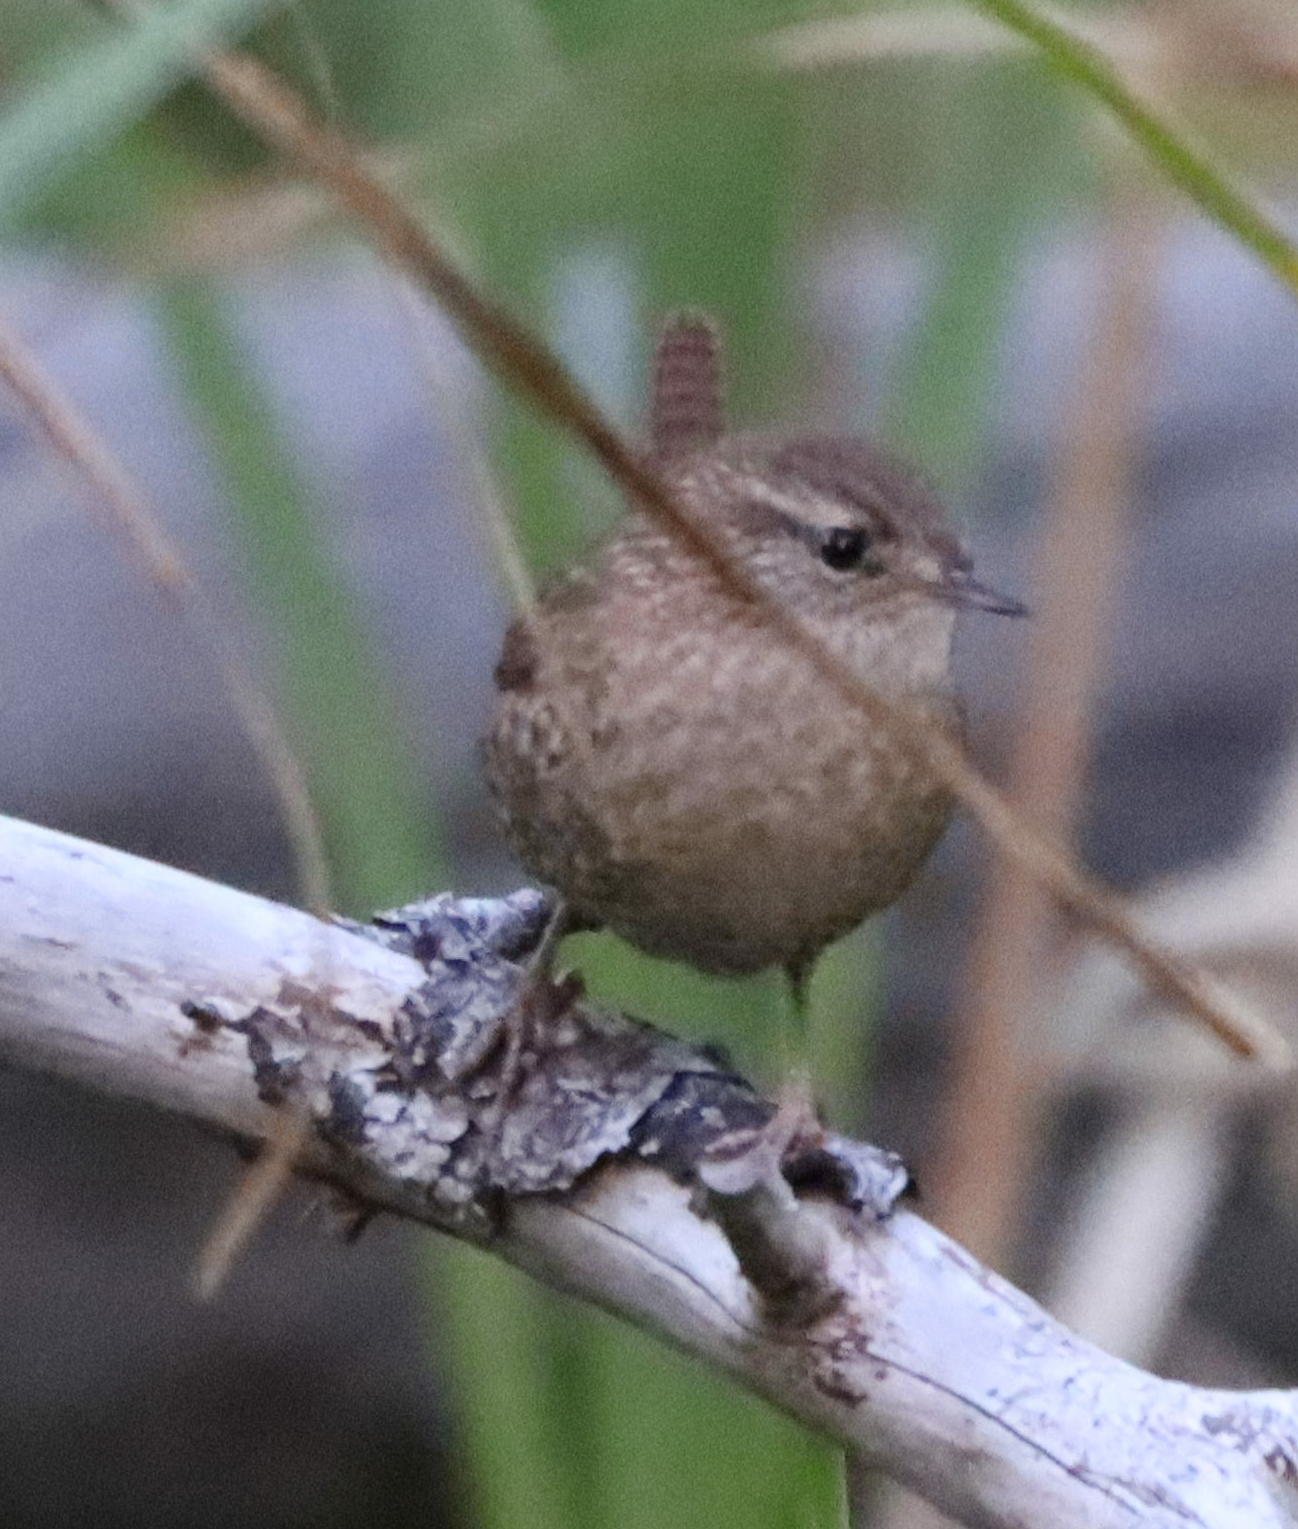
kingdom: Animalia
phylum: Chordata
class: Aves
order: Passeriformes
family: Troglodytidae
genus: Troglodytes
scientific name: Troglodytes hiemalis
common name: Winter wren
